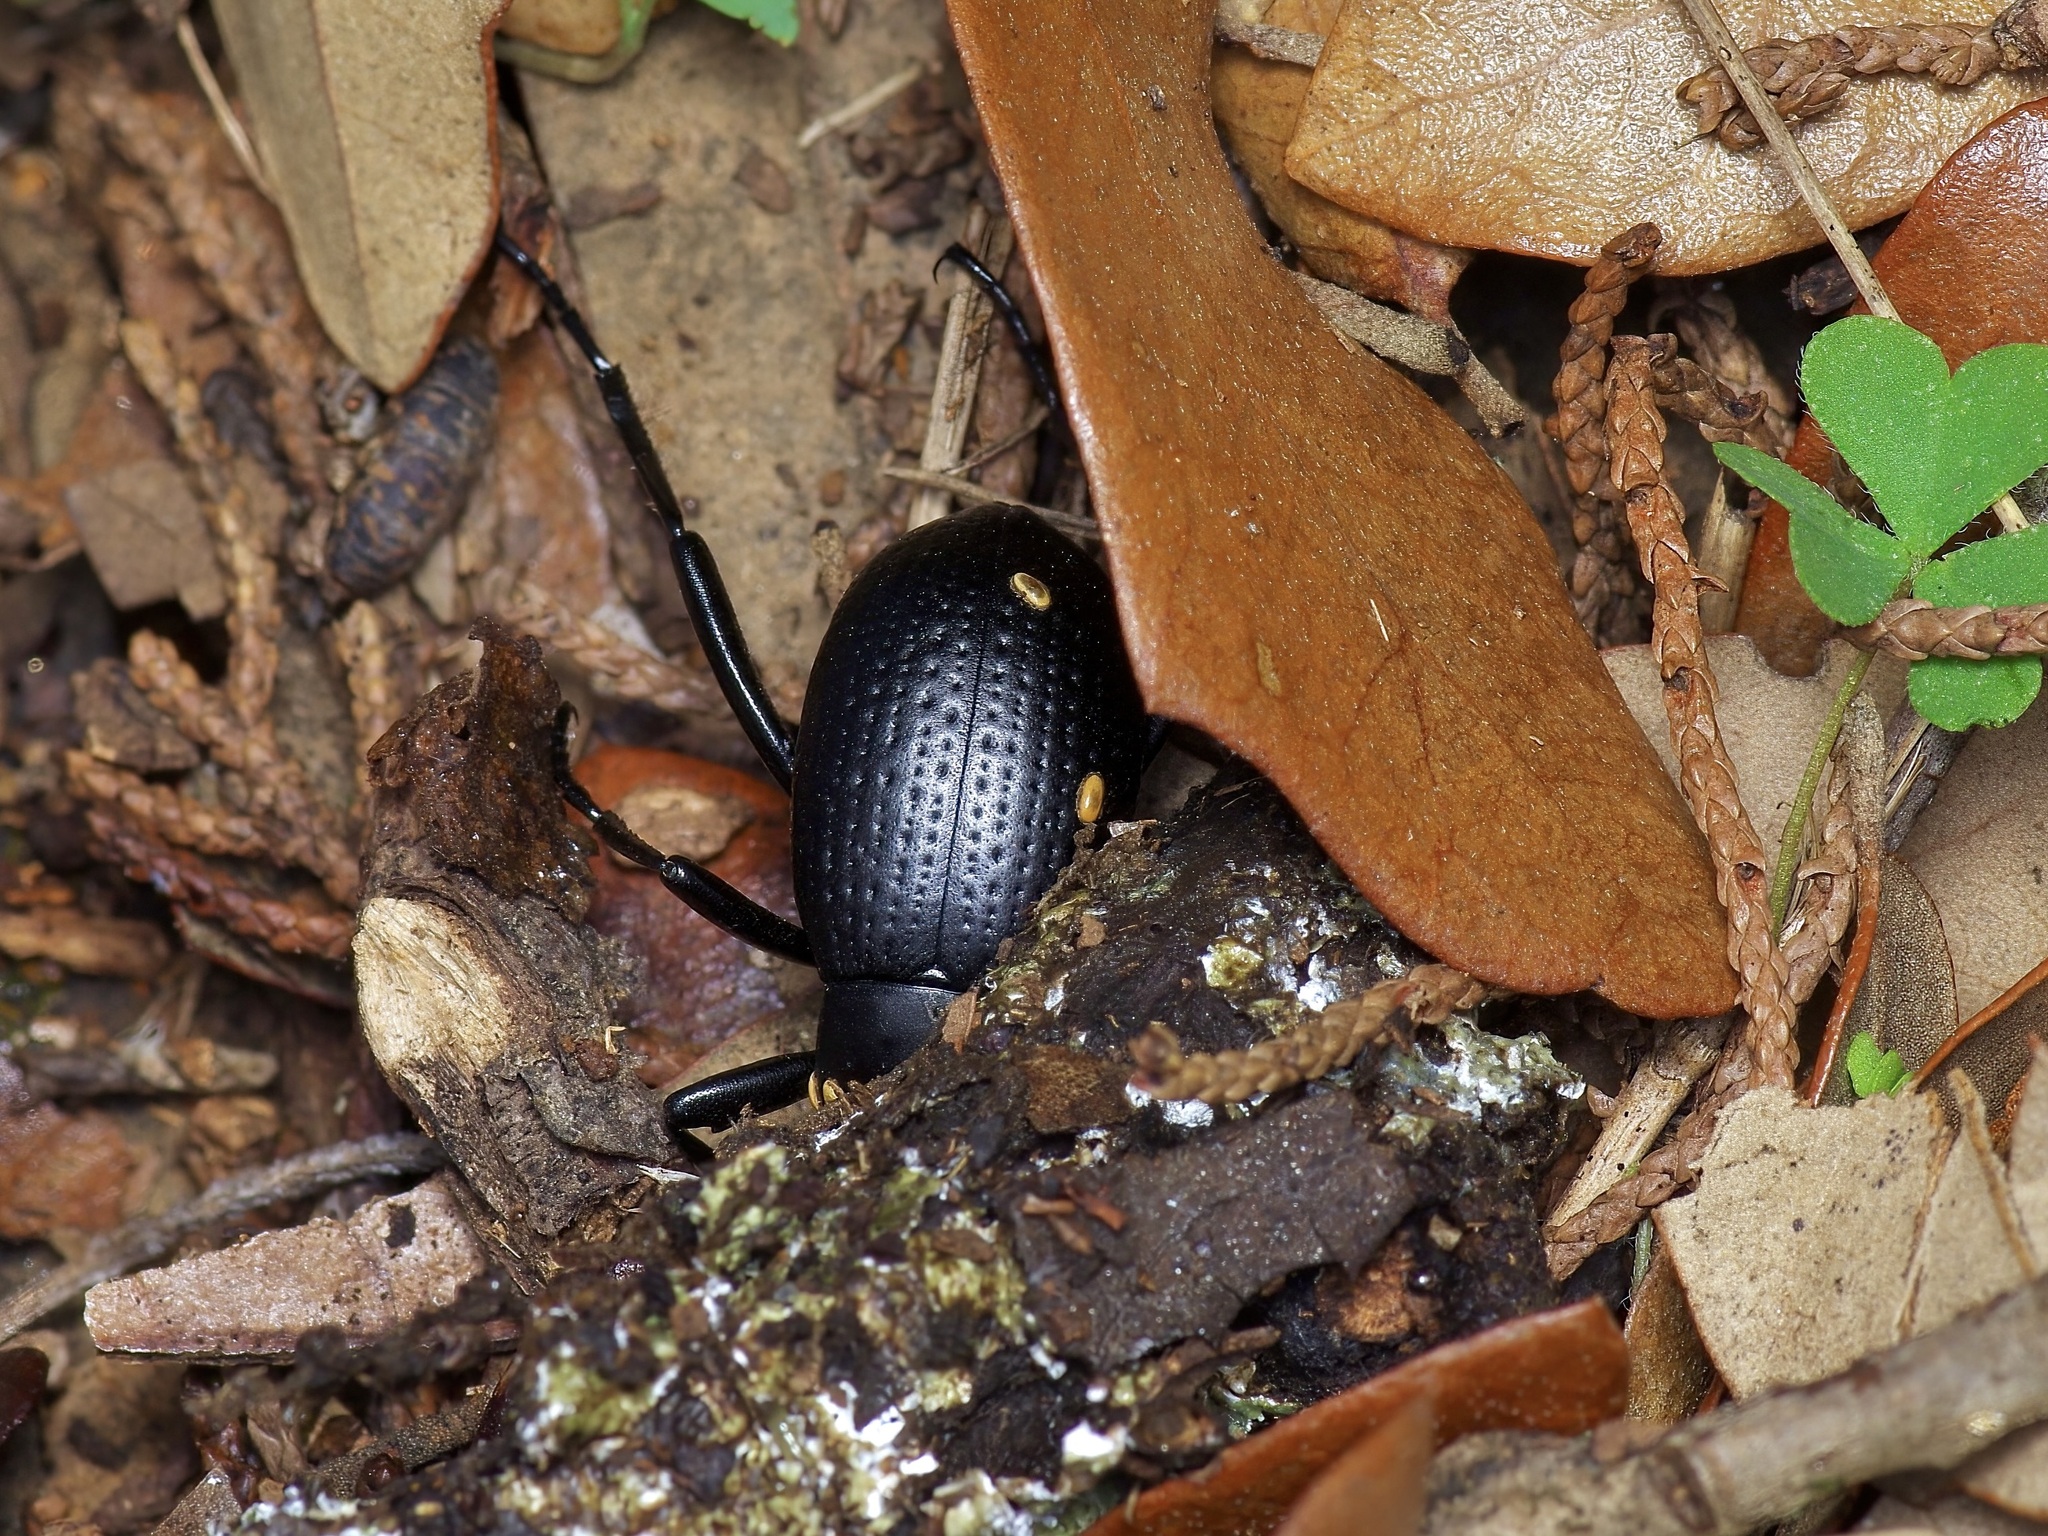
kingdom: Animalia
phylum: Arthropoda
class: Insecta
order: Coleoptera
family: Tenebrionidae
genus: Eleodes
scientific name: Eleodes goryi
